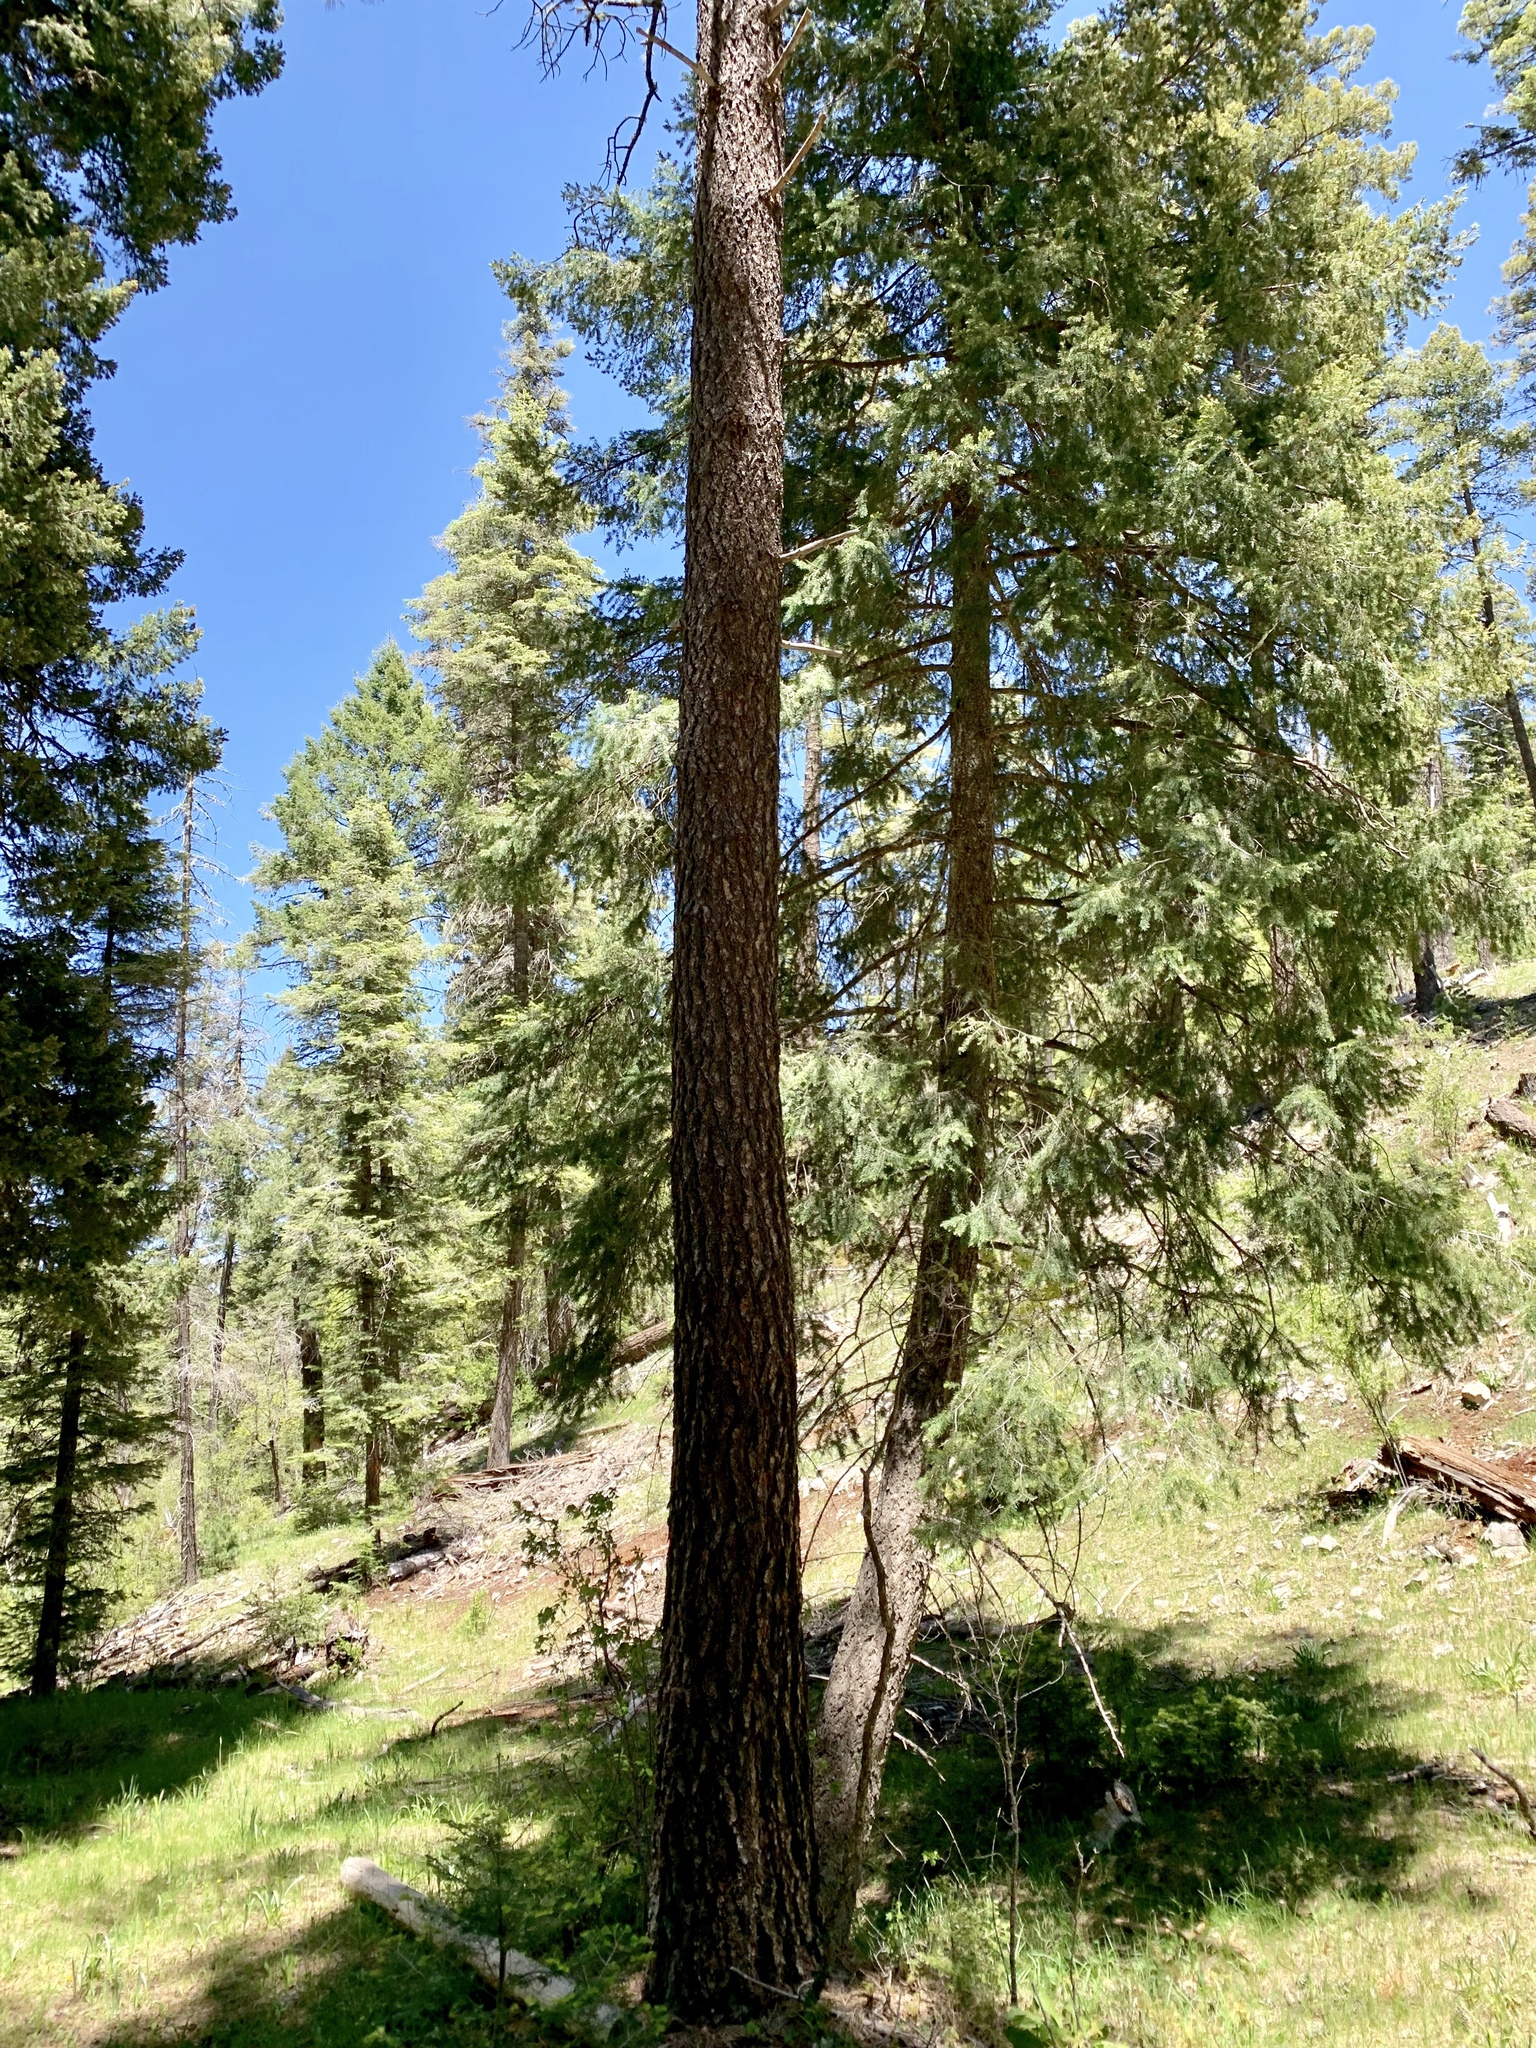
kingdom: Plantae
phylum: Tracheophyta
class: Pinopsida
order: Pinales
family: Pinaceae
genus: Pinus
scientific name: Pinus ponderosa
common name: Western yellow-pine
